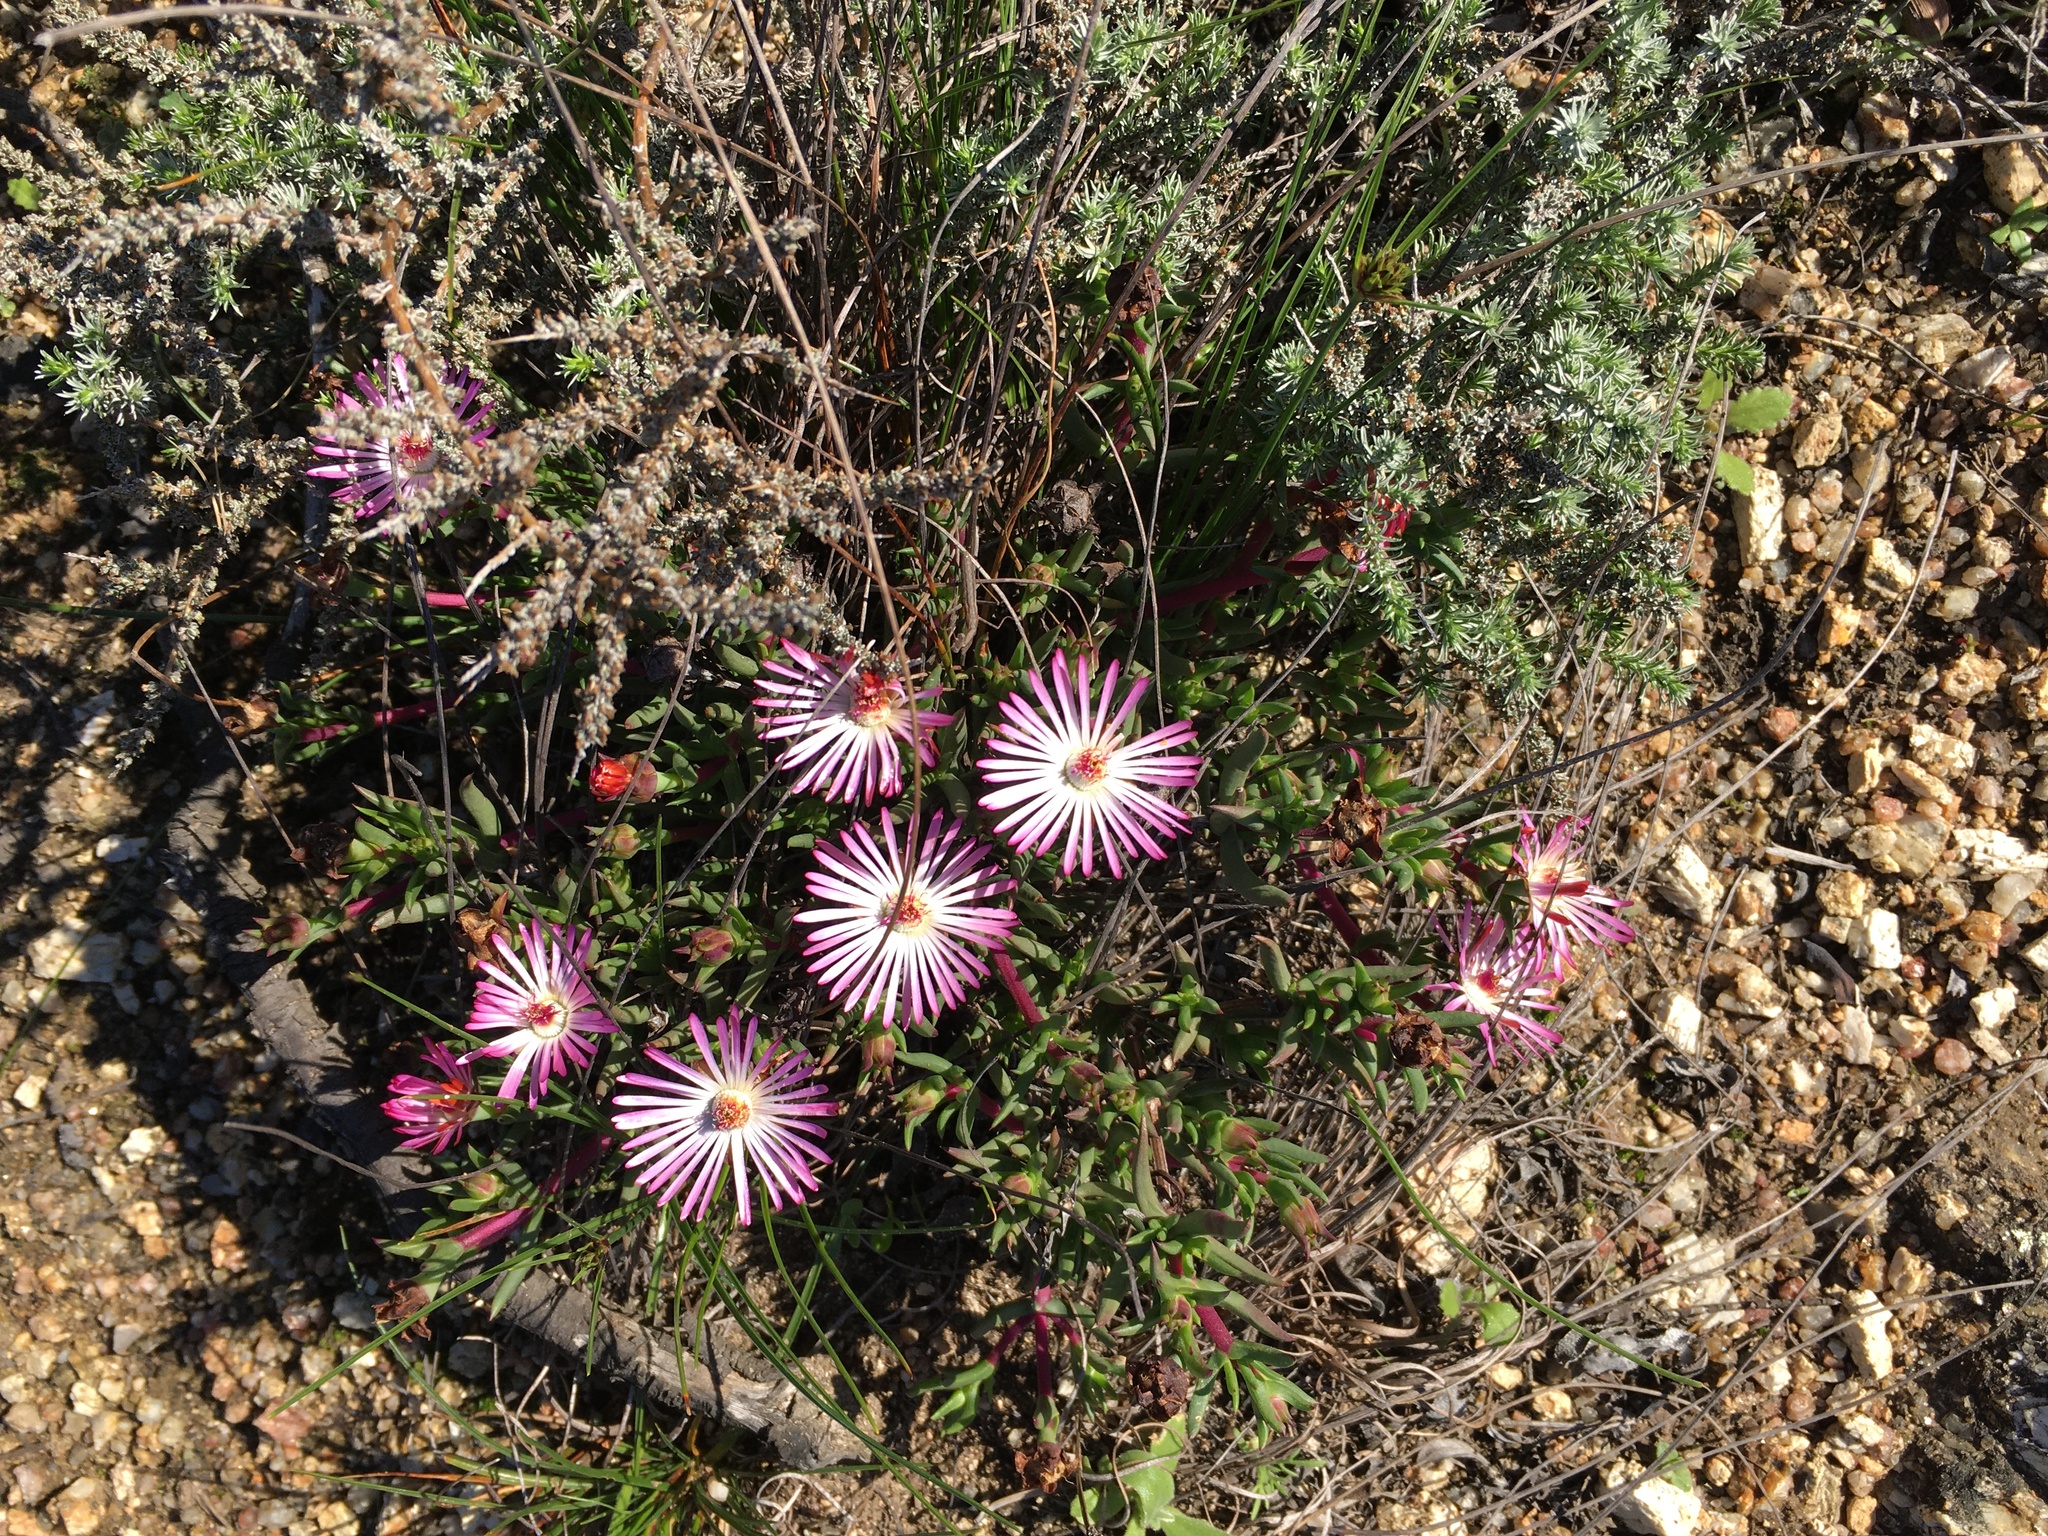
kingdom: Plantae
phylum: Tracheophyta
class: Magnoliopsida
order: Caryophyllales
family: Aizoaceae
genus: Lampranthus
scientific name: Lampranthus spiniformis
